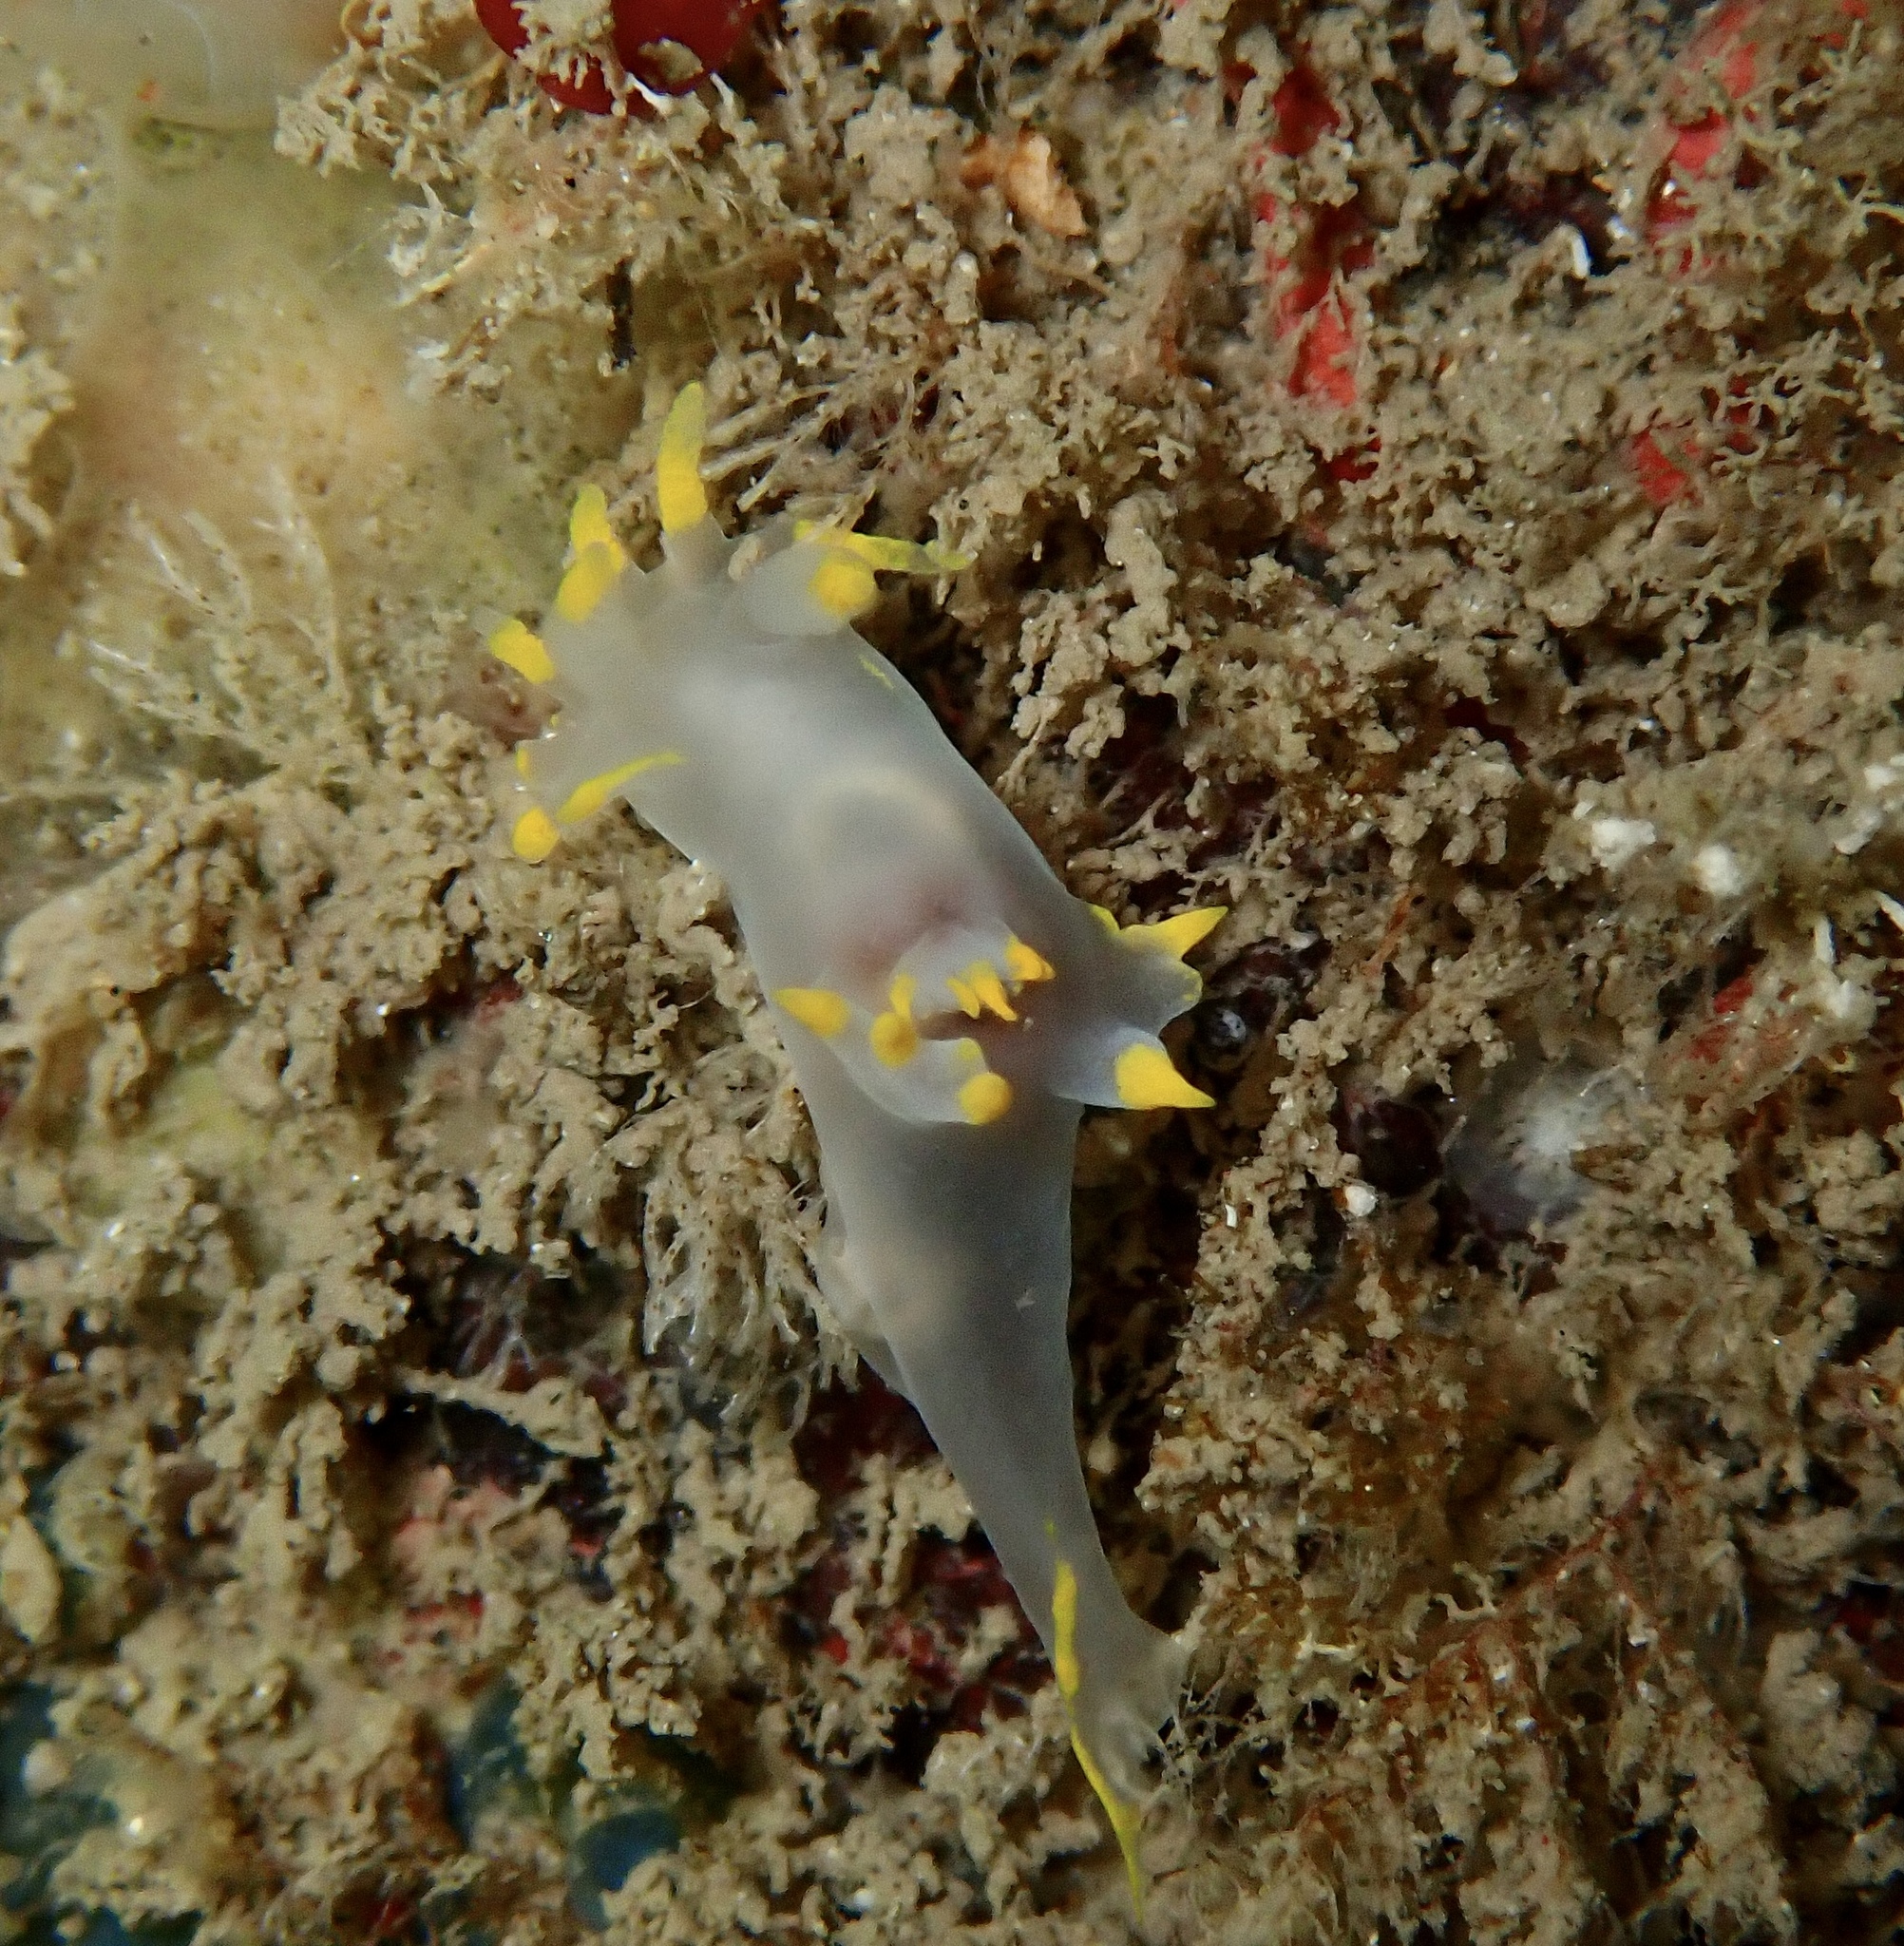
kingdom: Animalia
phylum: Mollusca
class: Gastropoda
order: Nudibranchia
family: Polyceridae
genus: Polycera
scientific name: Polycera faeroensis
